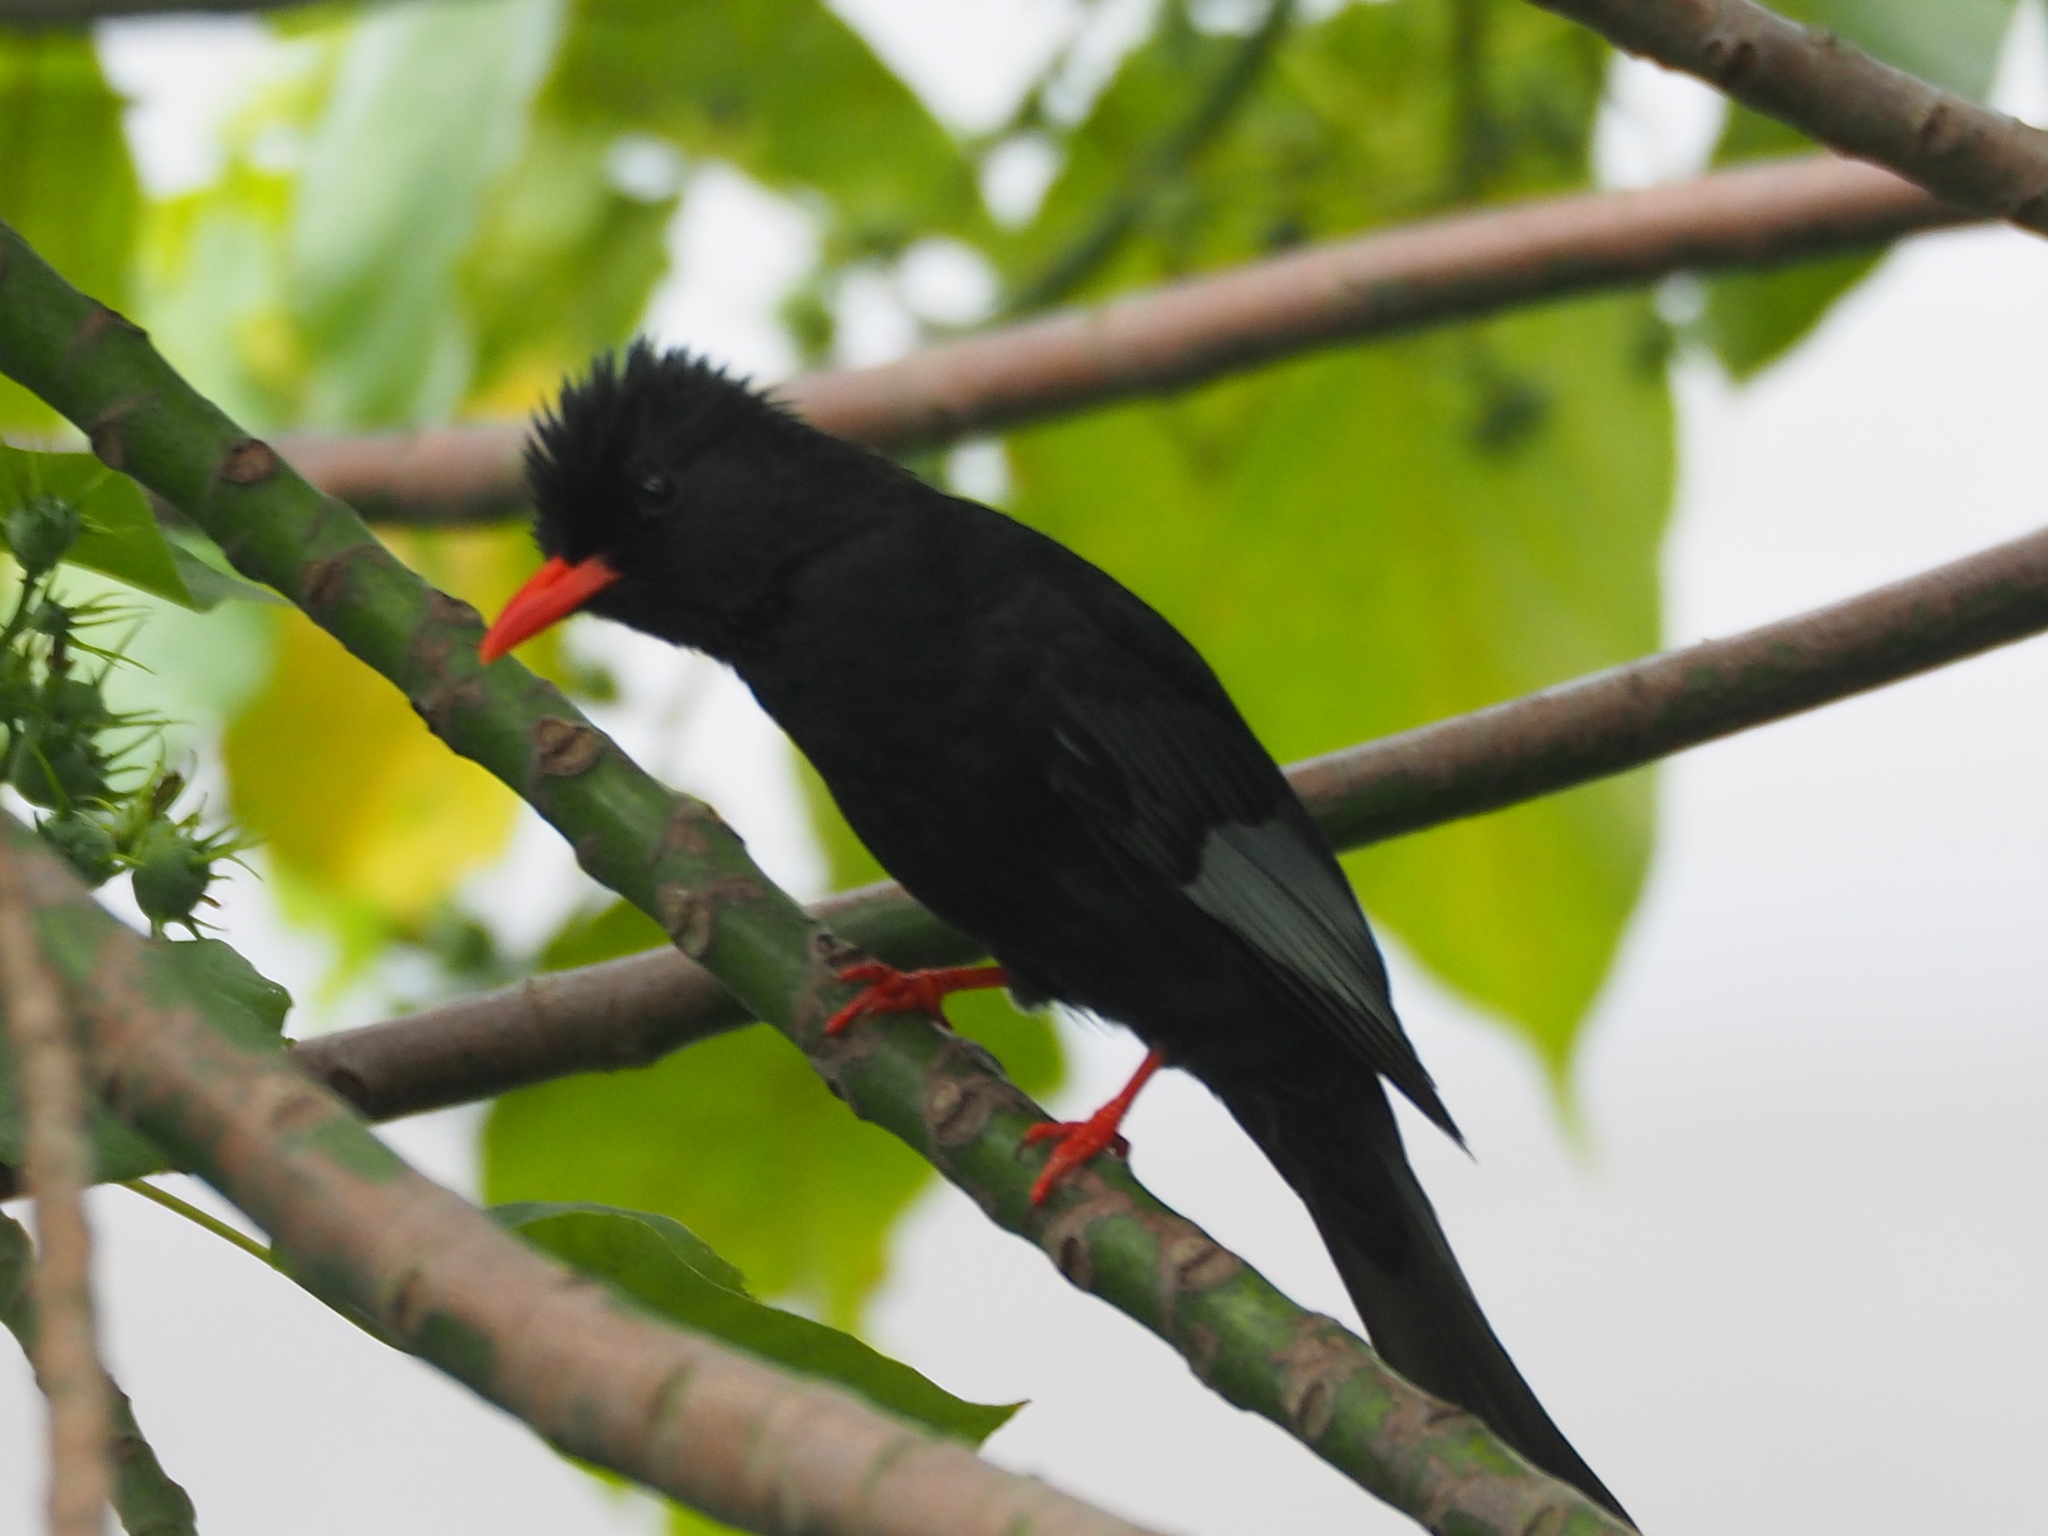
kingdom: Animalia
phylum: Chordata
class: Aves
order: Passeriformes
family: Pycnonotidae
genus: Hypsipetes
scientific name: Hypsipetes leucocephalus
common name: Black bulbul
